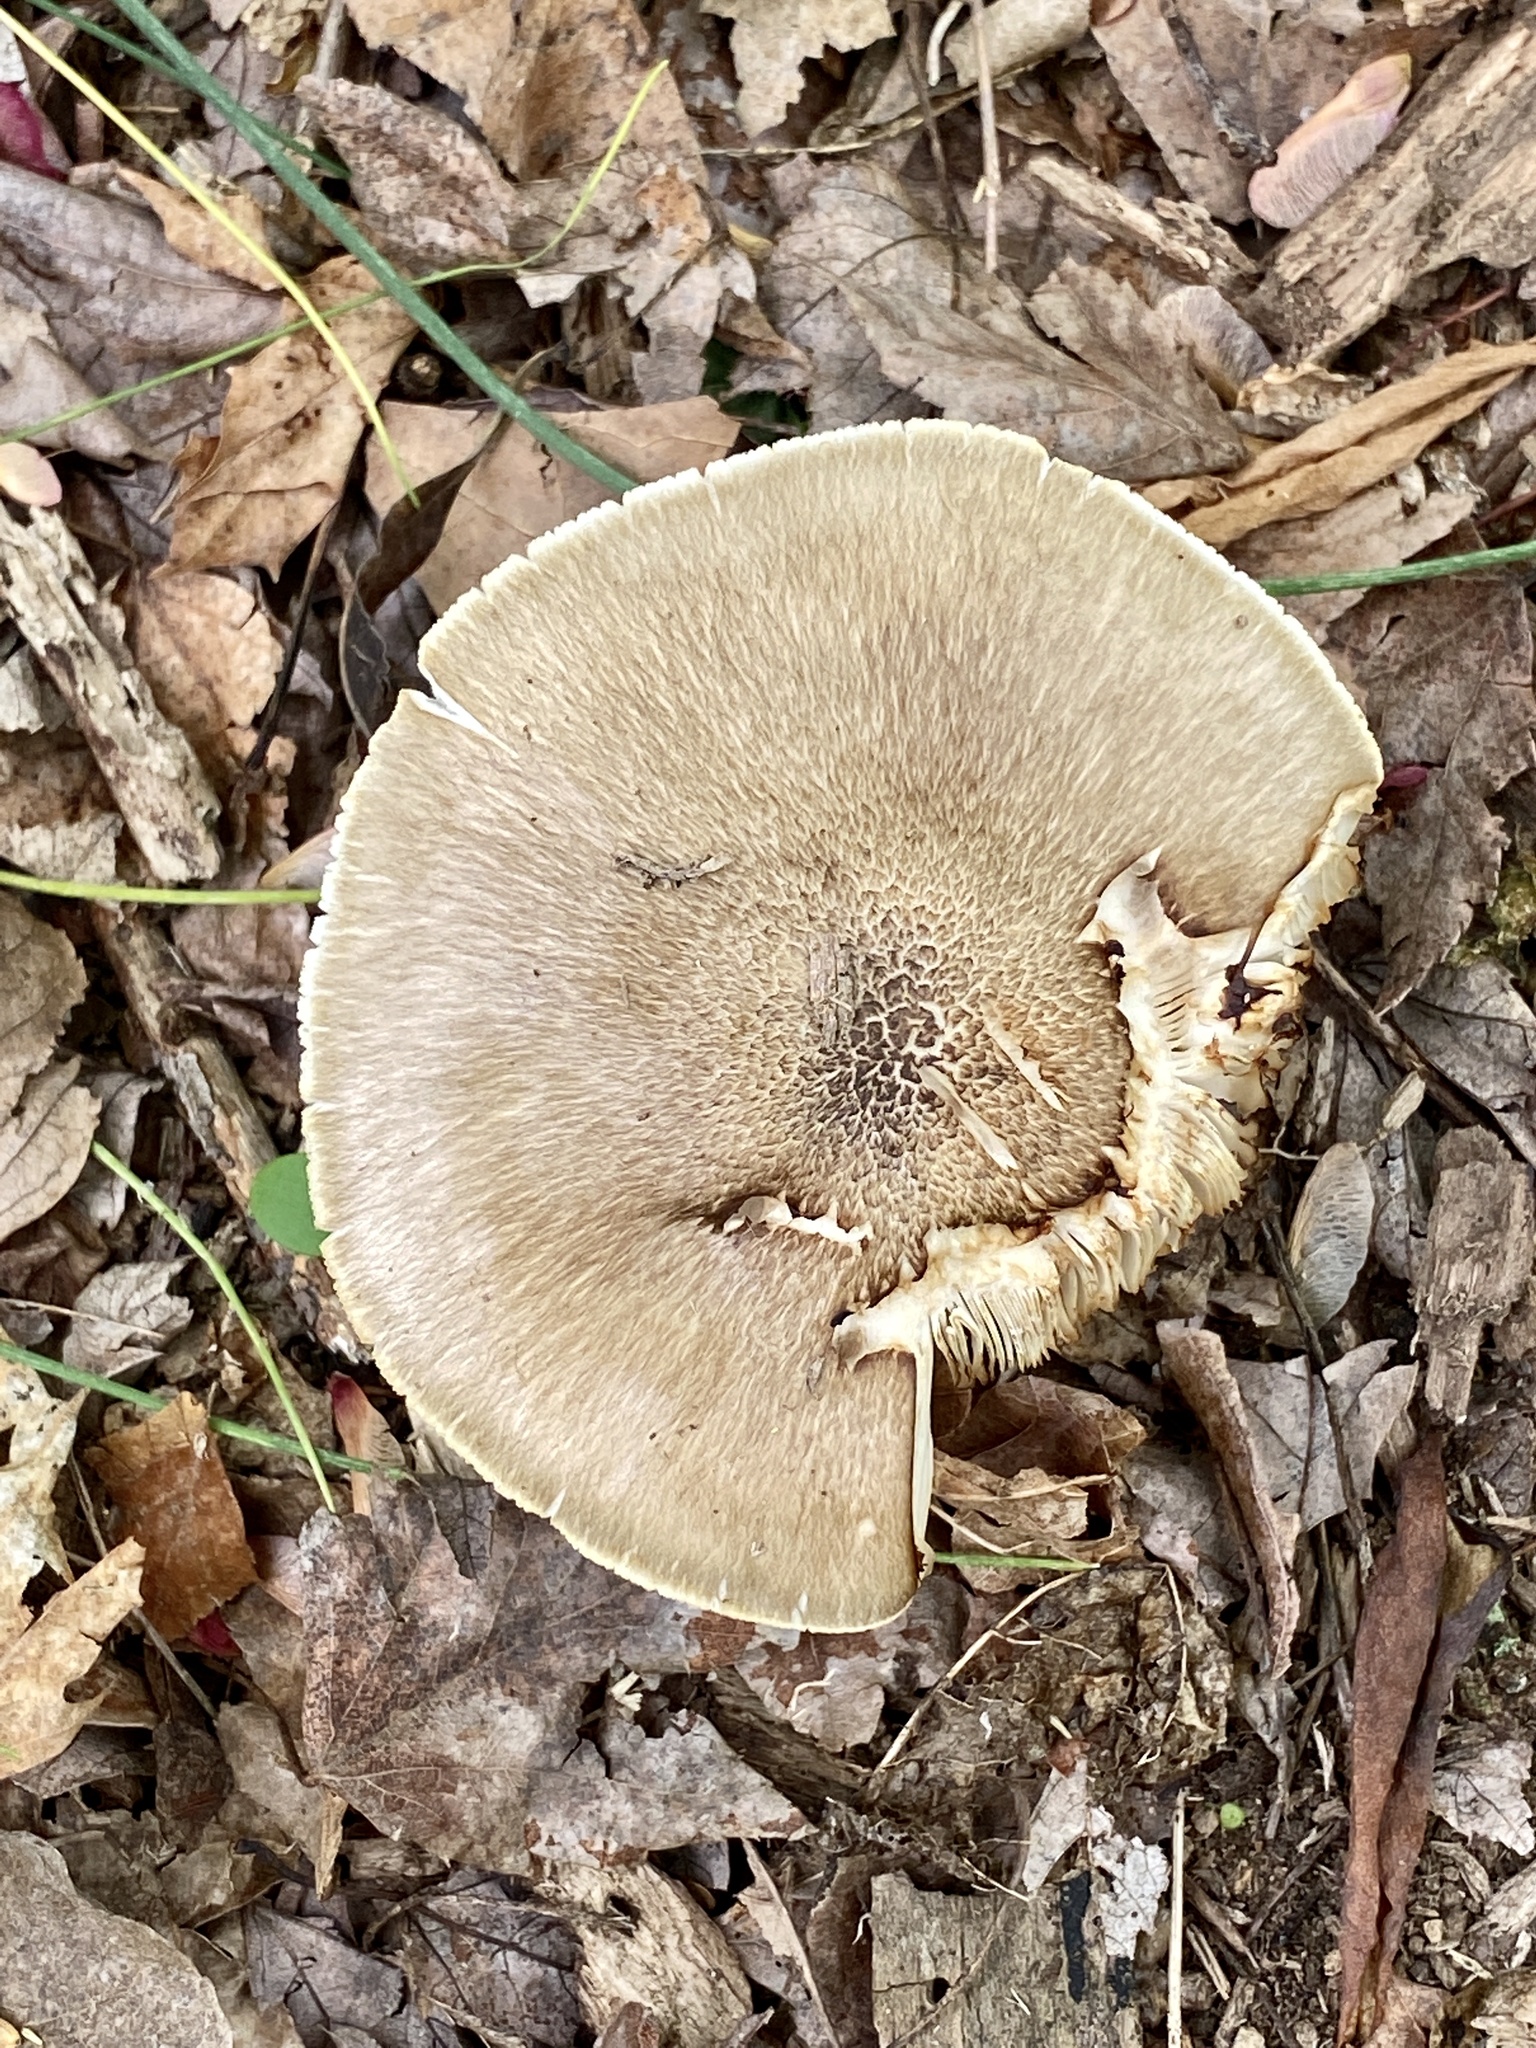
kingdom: Fungi
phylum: Basidiomycota
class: Agaricomycetes
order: Agaricales
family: Pluteaceae
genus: Pluteus
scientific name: Pluteus cervinus
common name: Deer shield
